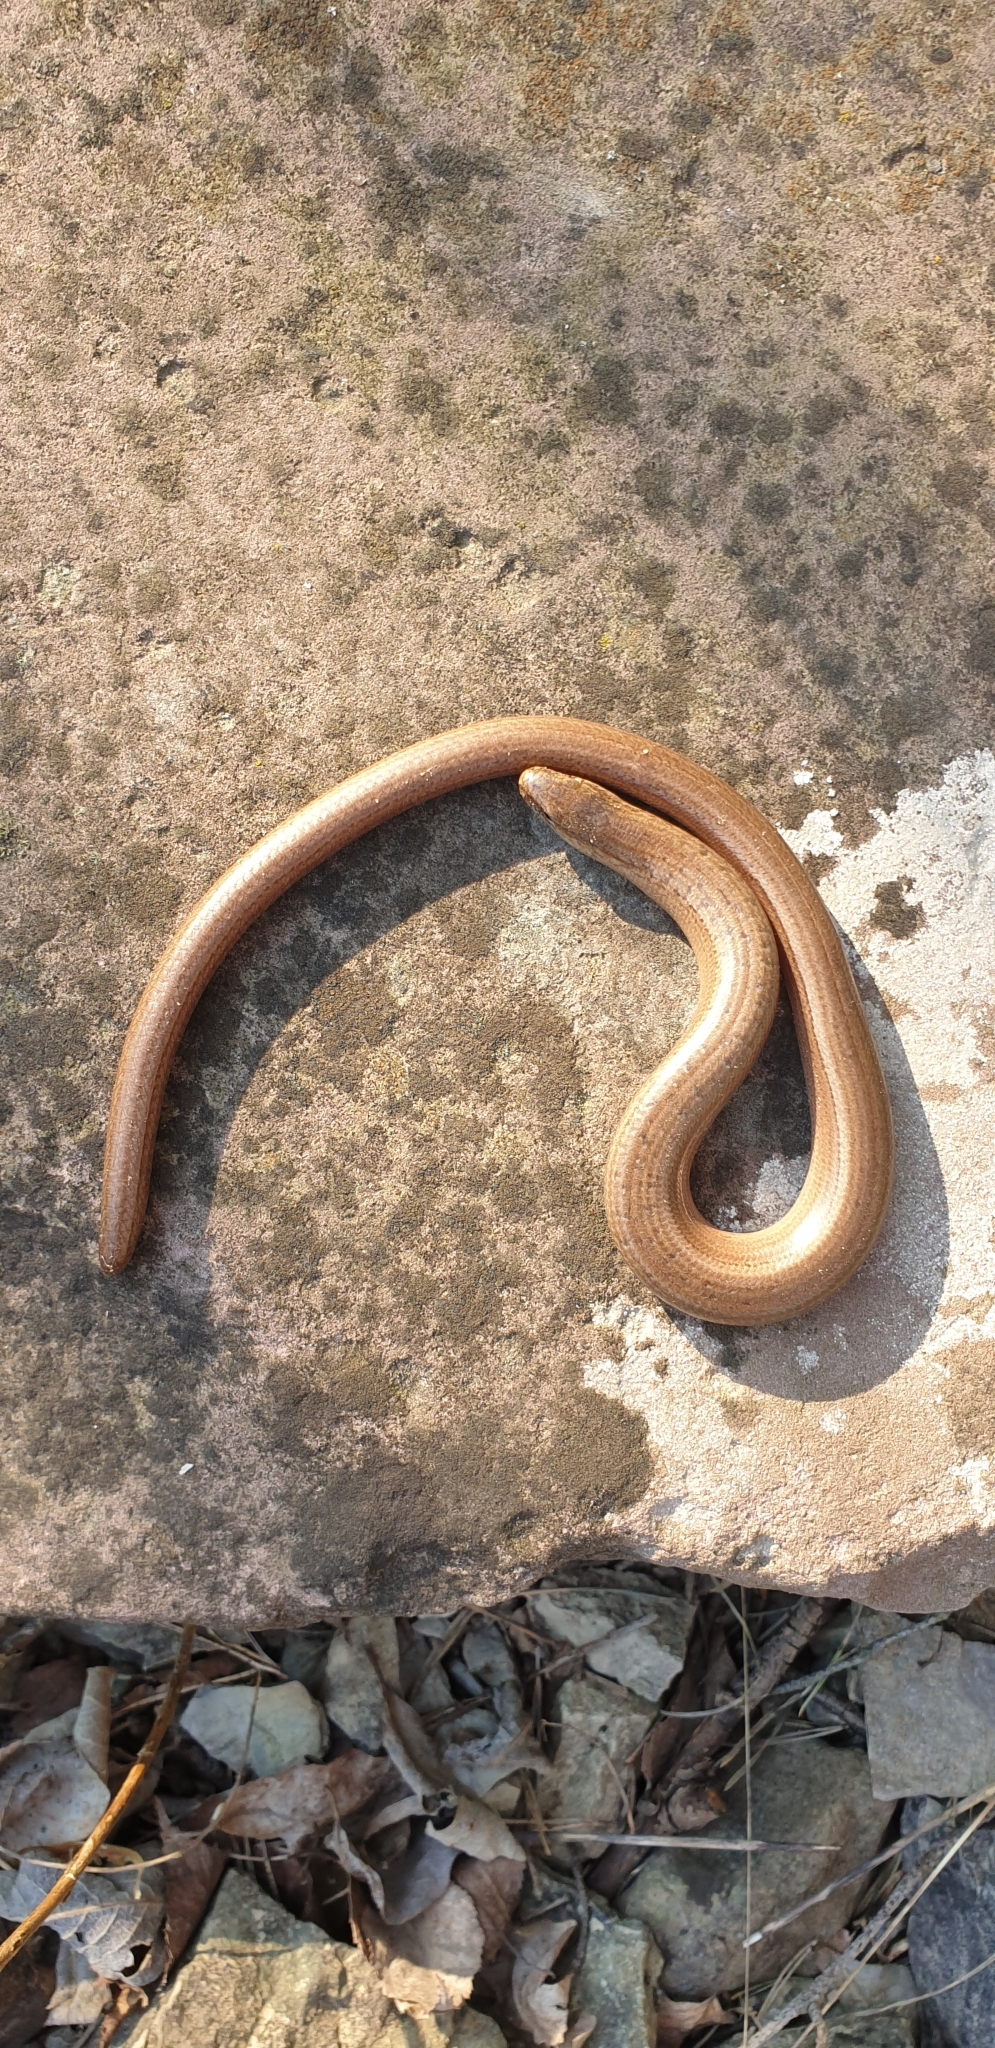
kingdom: Animalia
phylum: Chordata
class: Squamata
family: Anguidae
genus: Anguis
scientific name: Anguis fragilis
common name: Slow worm
